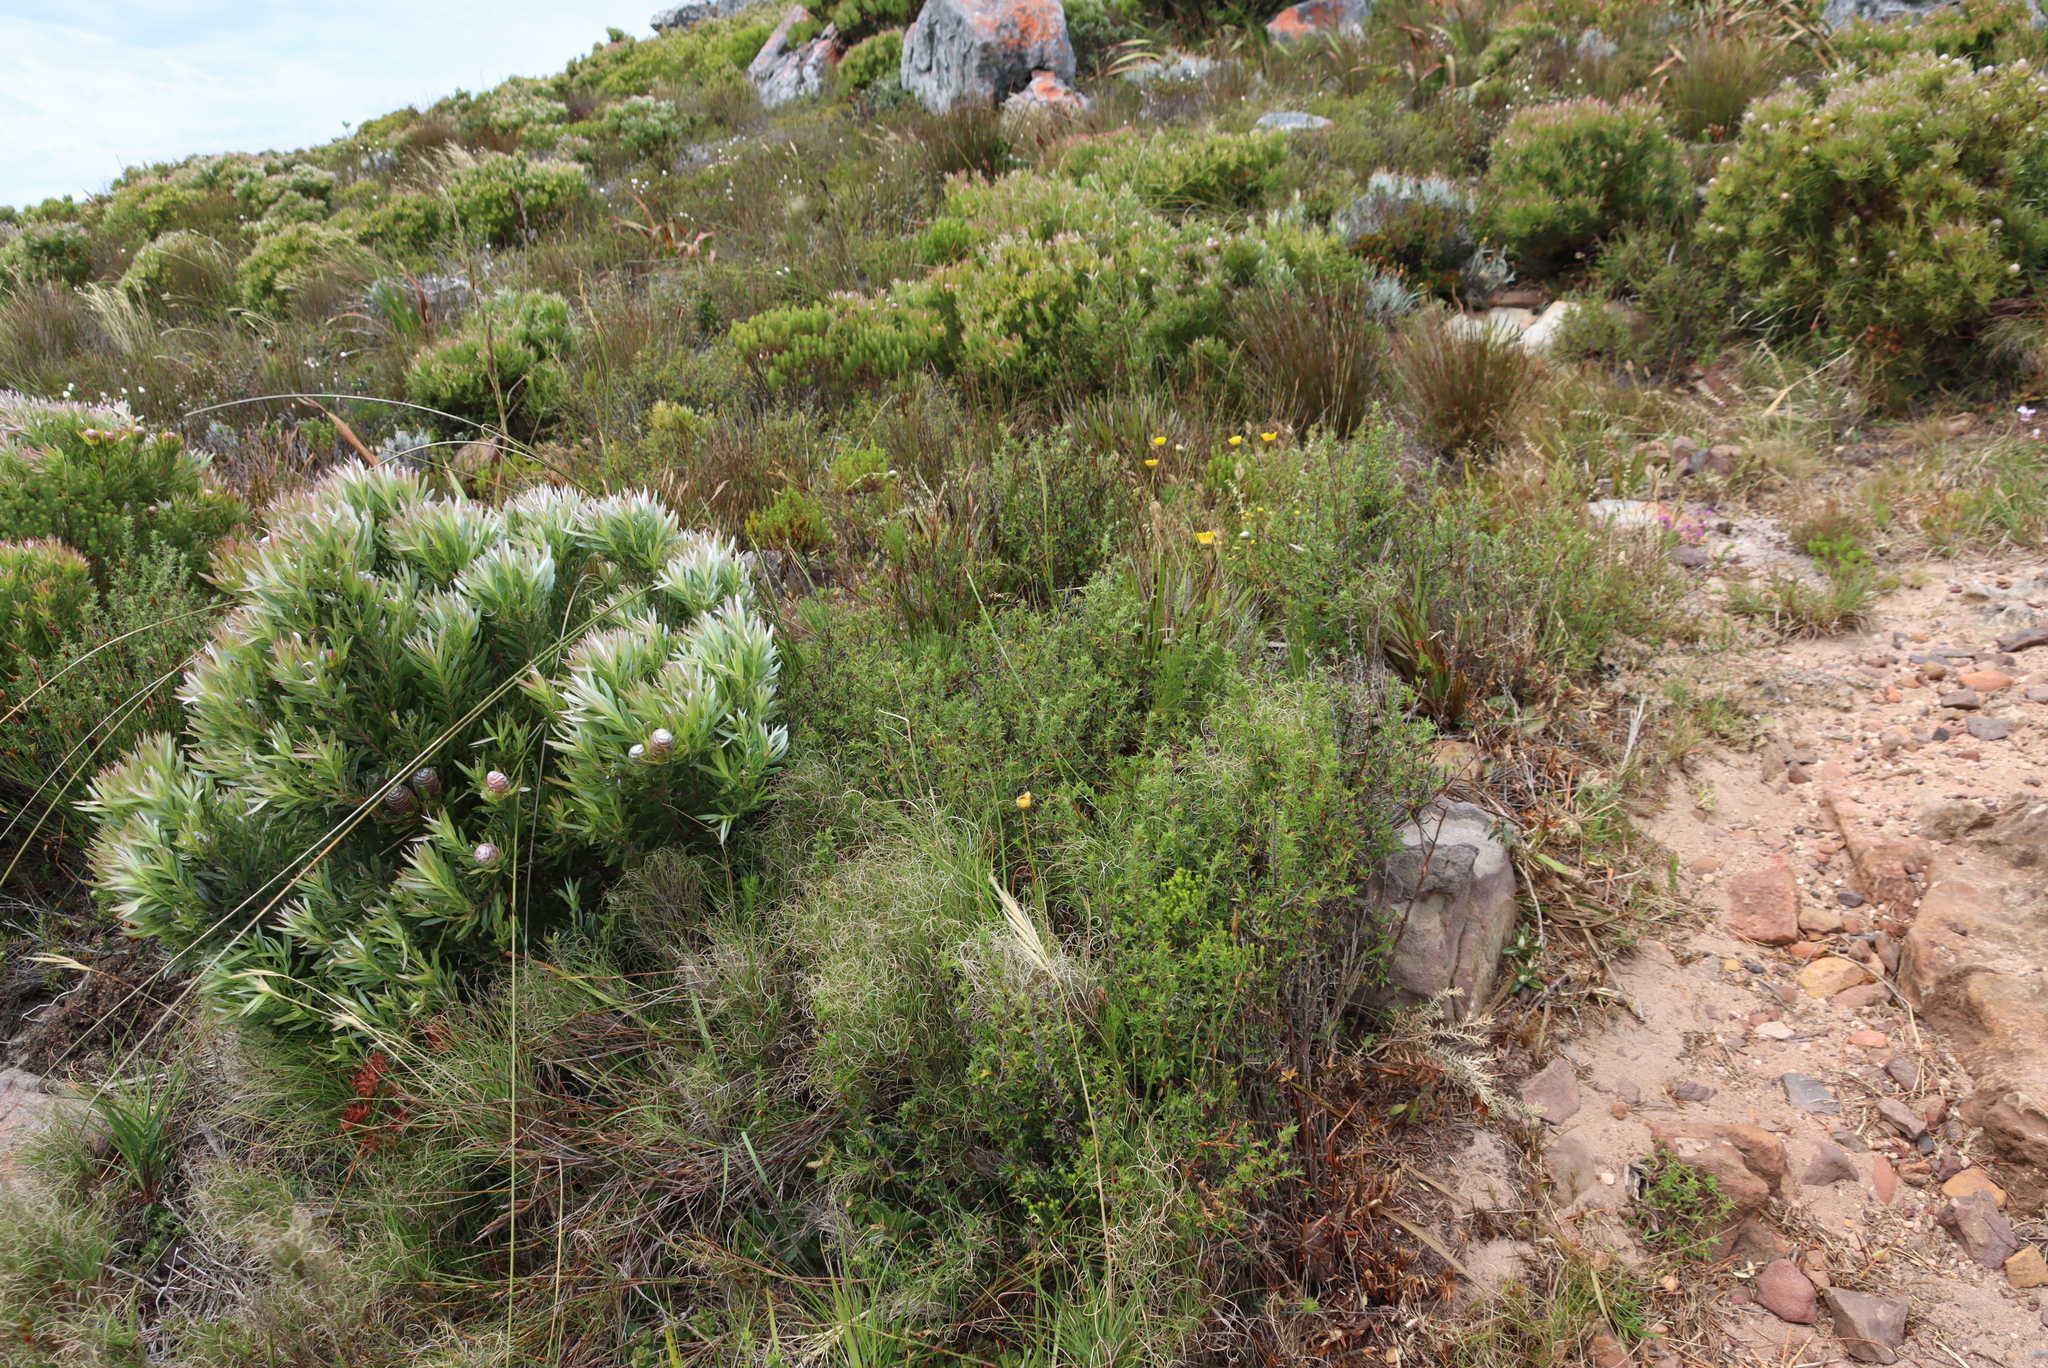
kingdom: Plantae
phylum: Tracheophyta
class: Magnoliopsida
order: Proteales
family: Proteaceae
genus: Leucadendron
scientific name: Leucadendron xanthoconus
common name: Sickle-leaf conebush
